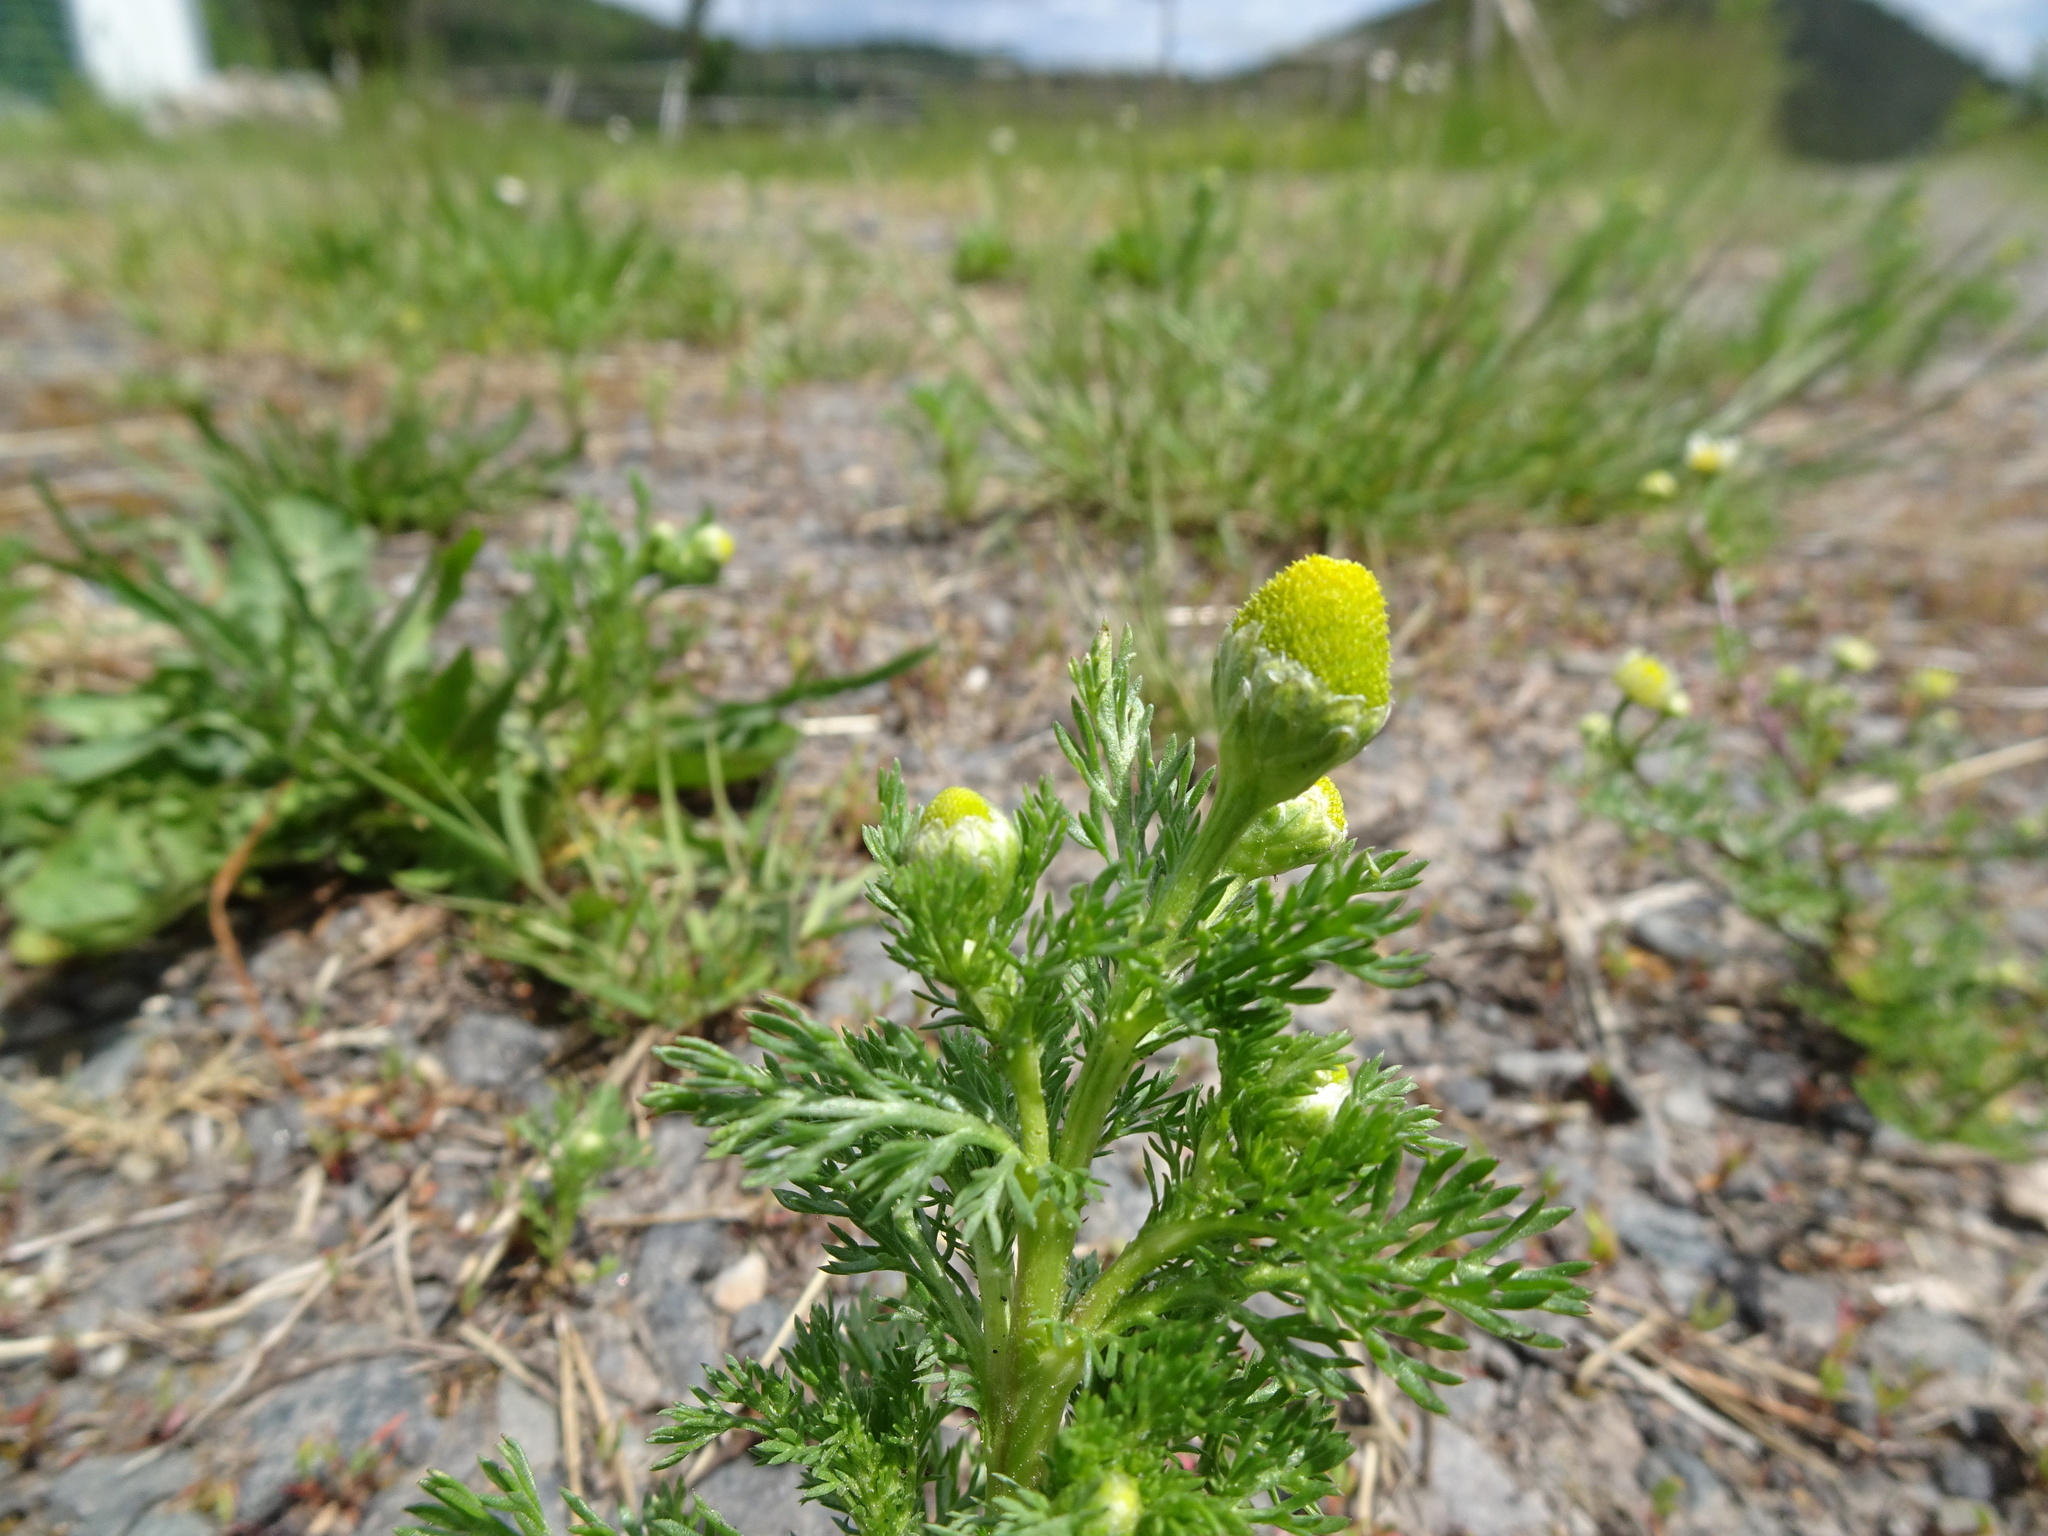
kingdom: Plantae
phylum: Tracheophyta
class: Magnoliopsida
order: Asterales
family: Asteraceae
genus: Matricaria
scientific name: Matricaria discoidea
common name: Disc mayweed
